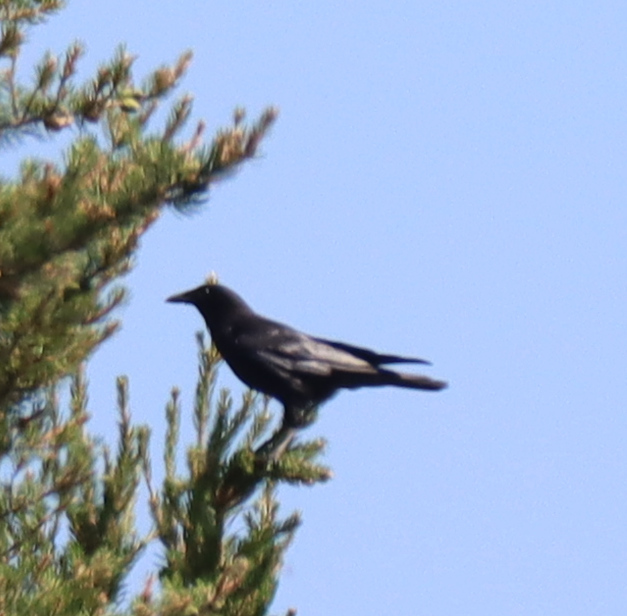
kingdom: Animalia
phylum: Chordata
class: Aves
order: Passeriformes
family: Corvidae
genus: Corvus
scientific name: Corvus brachyrhynchos
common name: American crow
